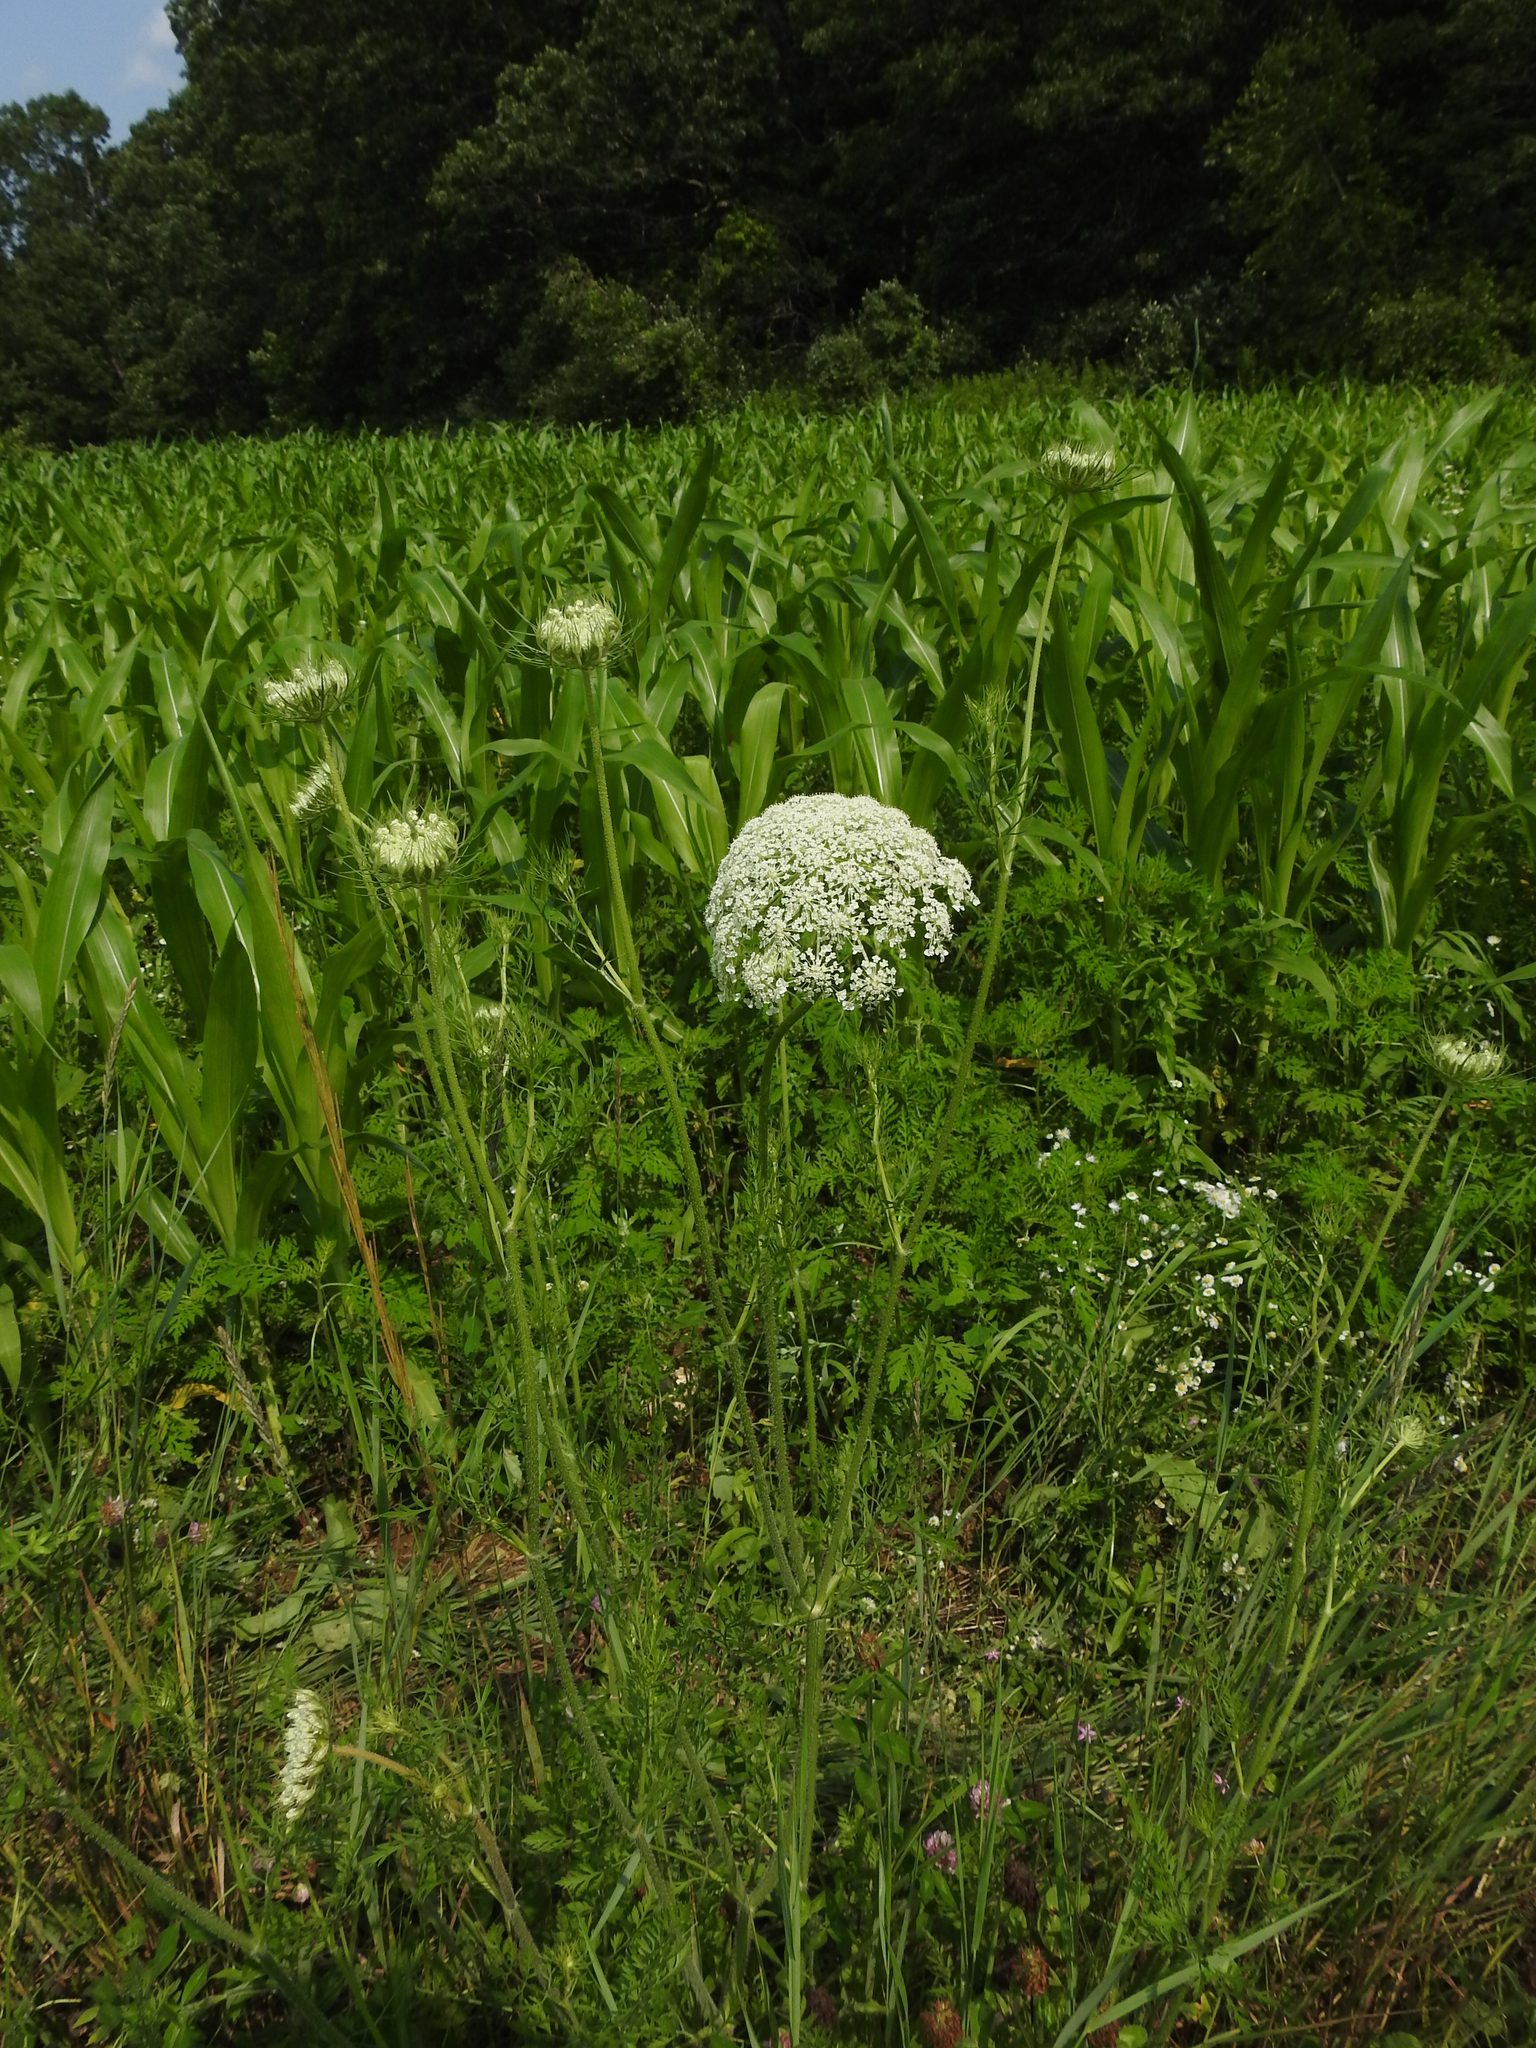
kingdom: Plantae
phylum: Tracheophyta
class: Magnoliopsida
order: Apiales
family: Apiaceae
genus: Daucus
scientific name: Daucus carota
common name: Wild carrot
